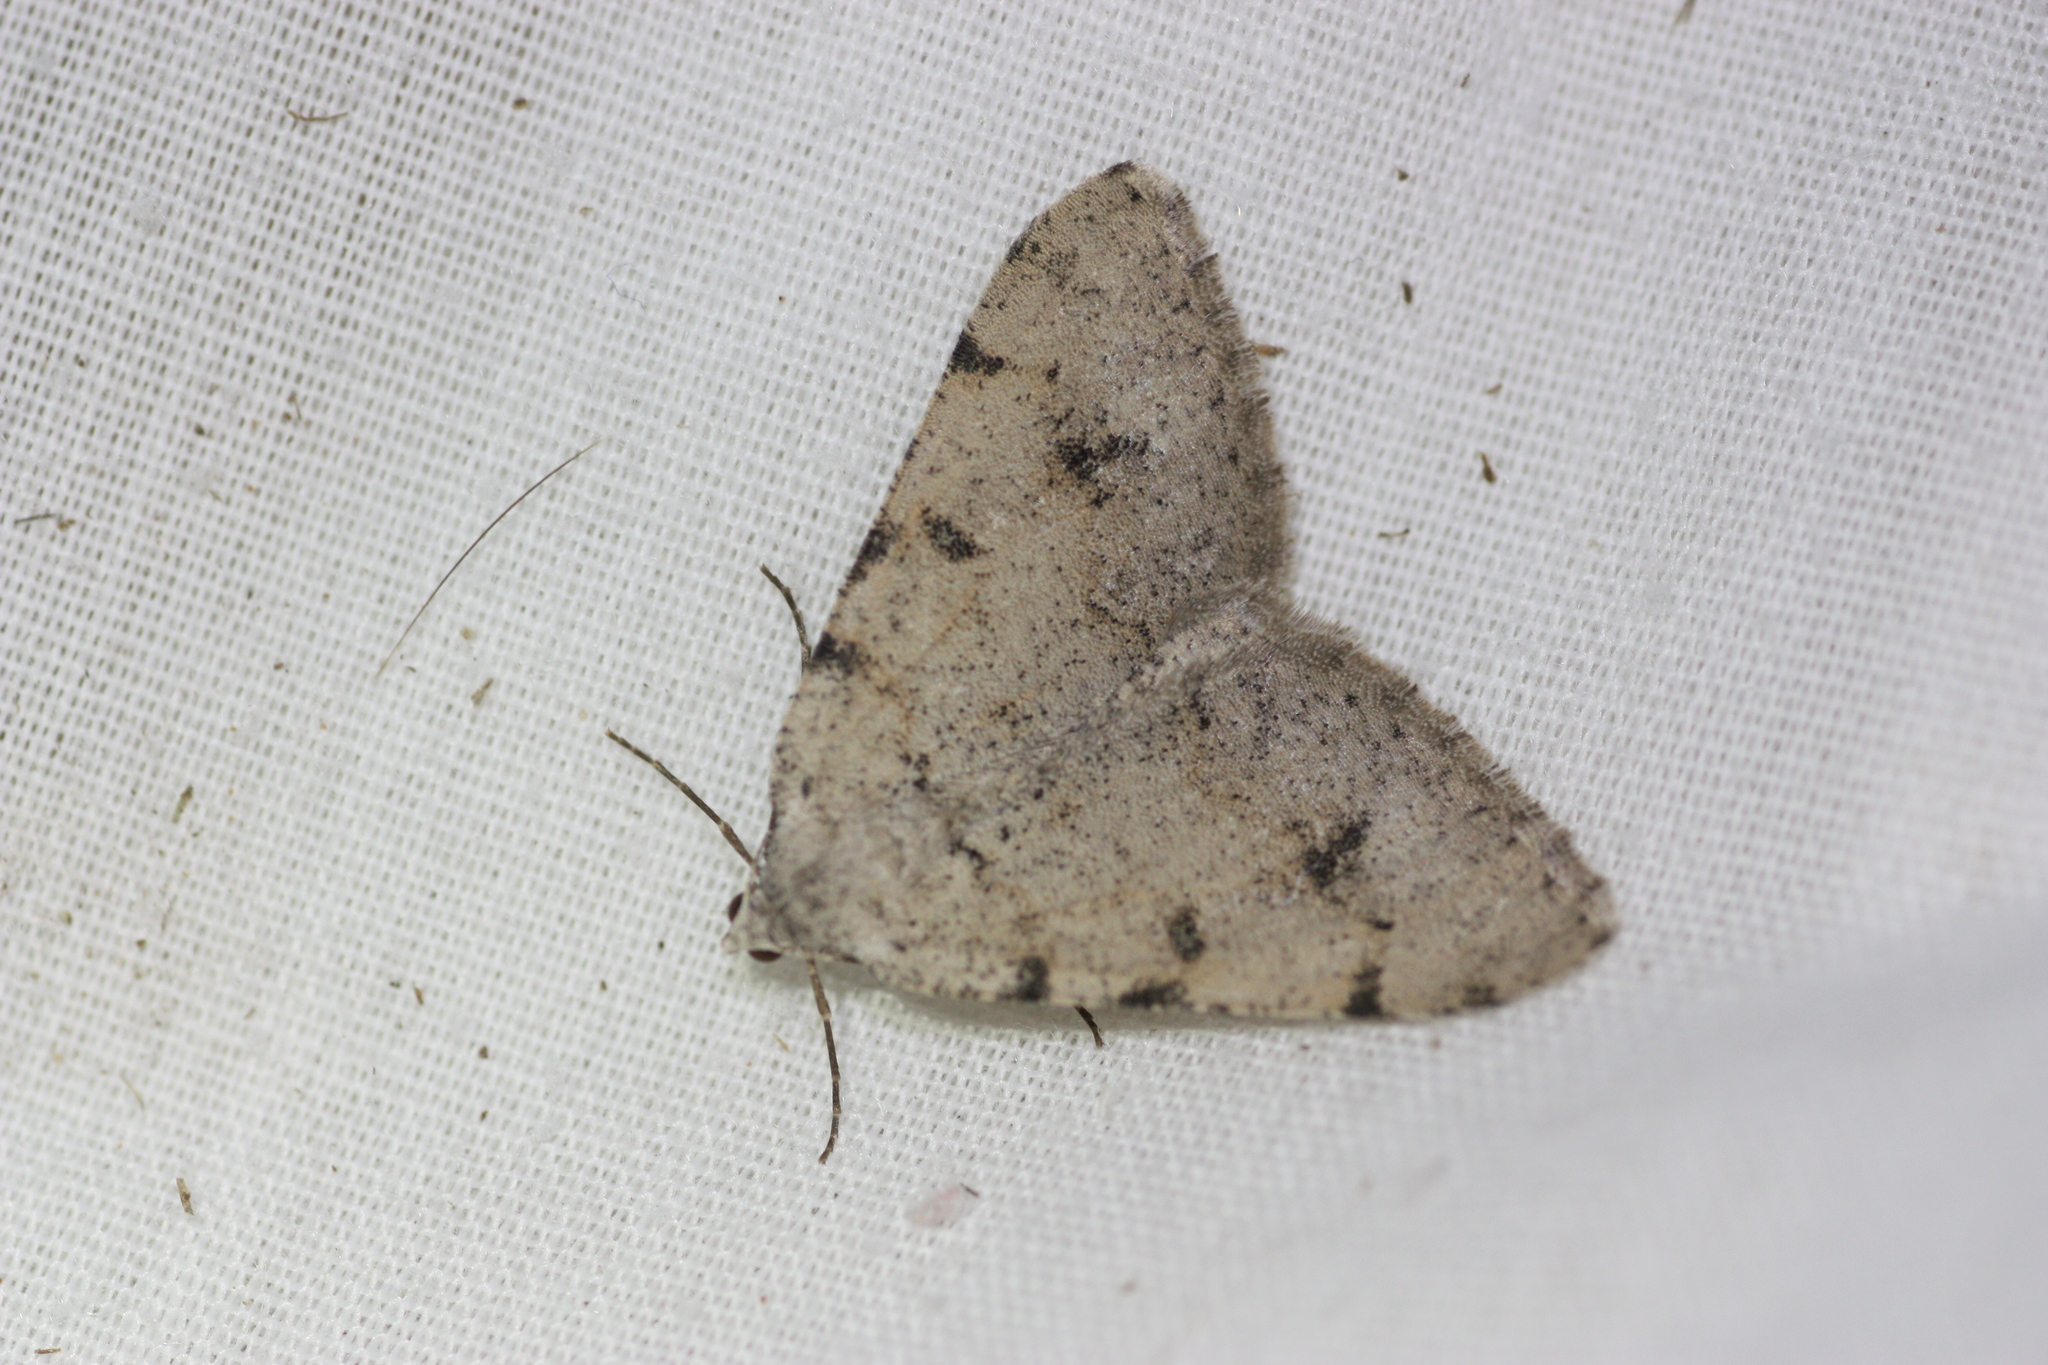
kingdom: Animalia
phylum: Arthropoda
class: Insecta
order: Lepidoptera
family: Geometridae
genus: Digrammia
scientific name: Digrammia colorata
